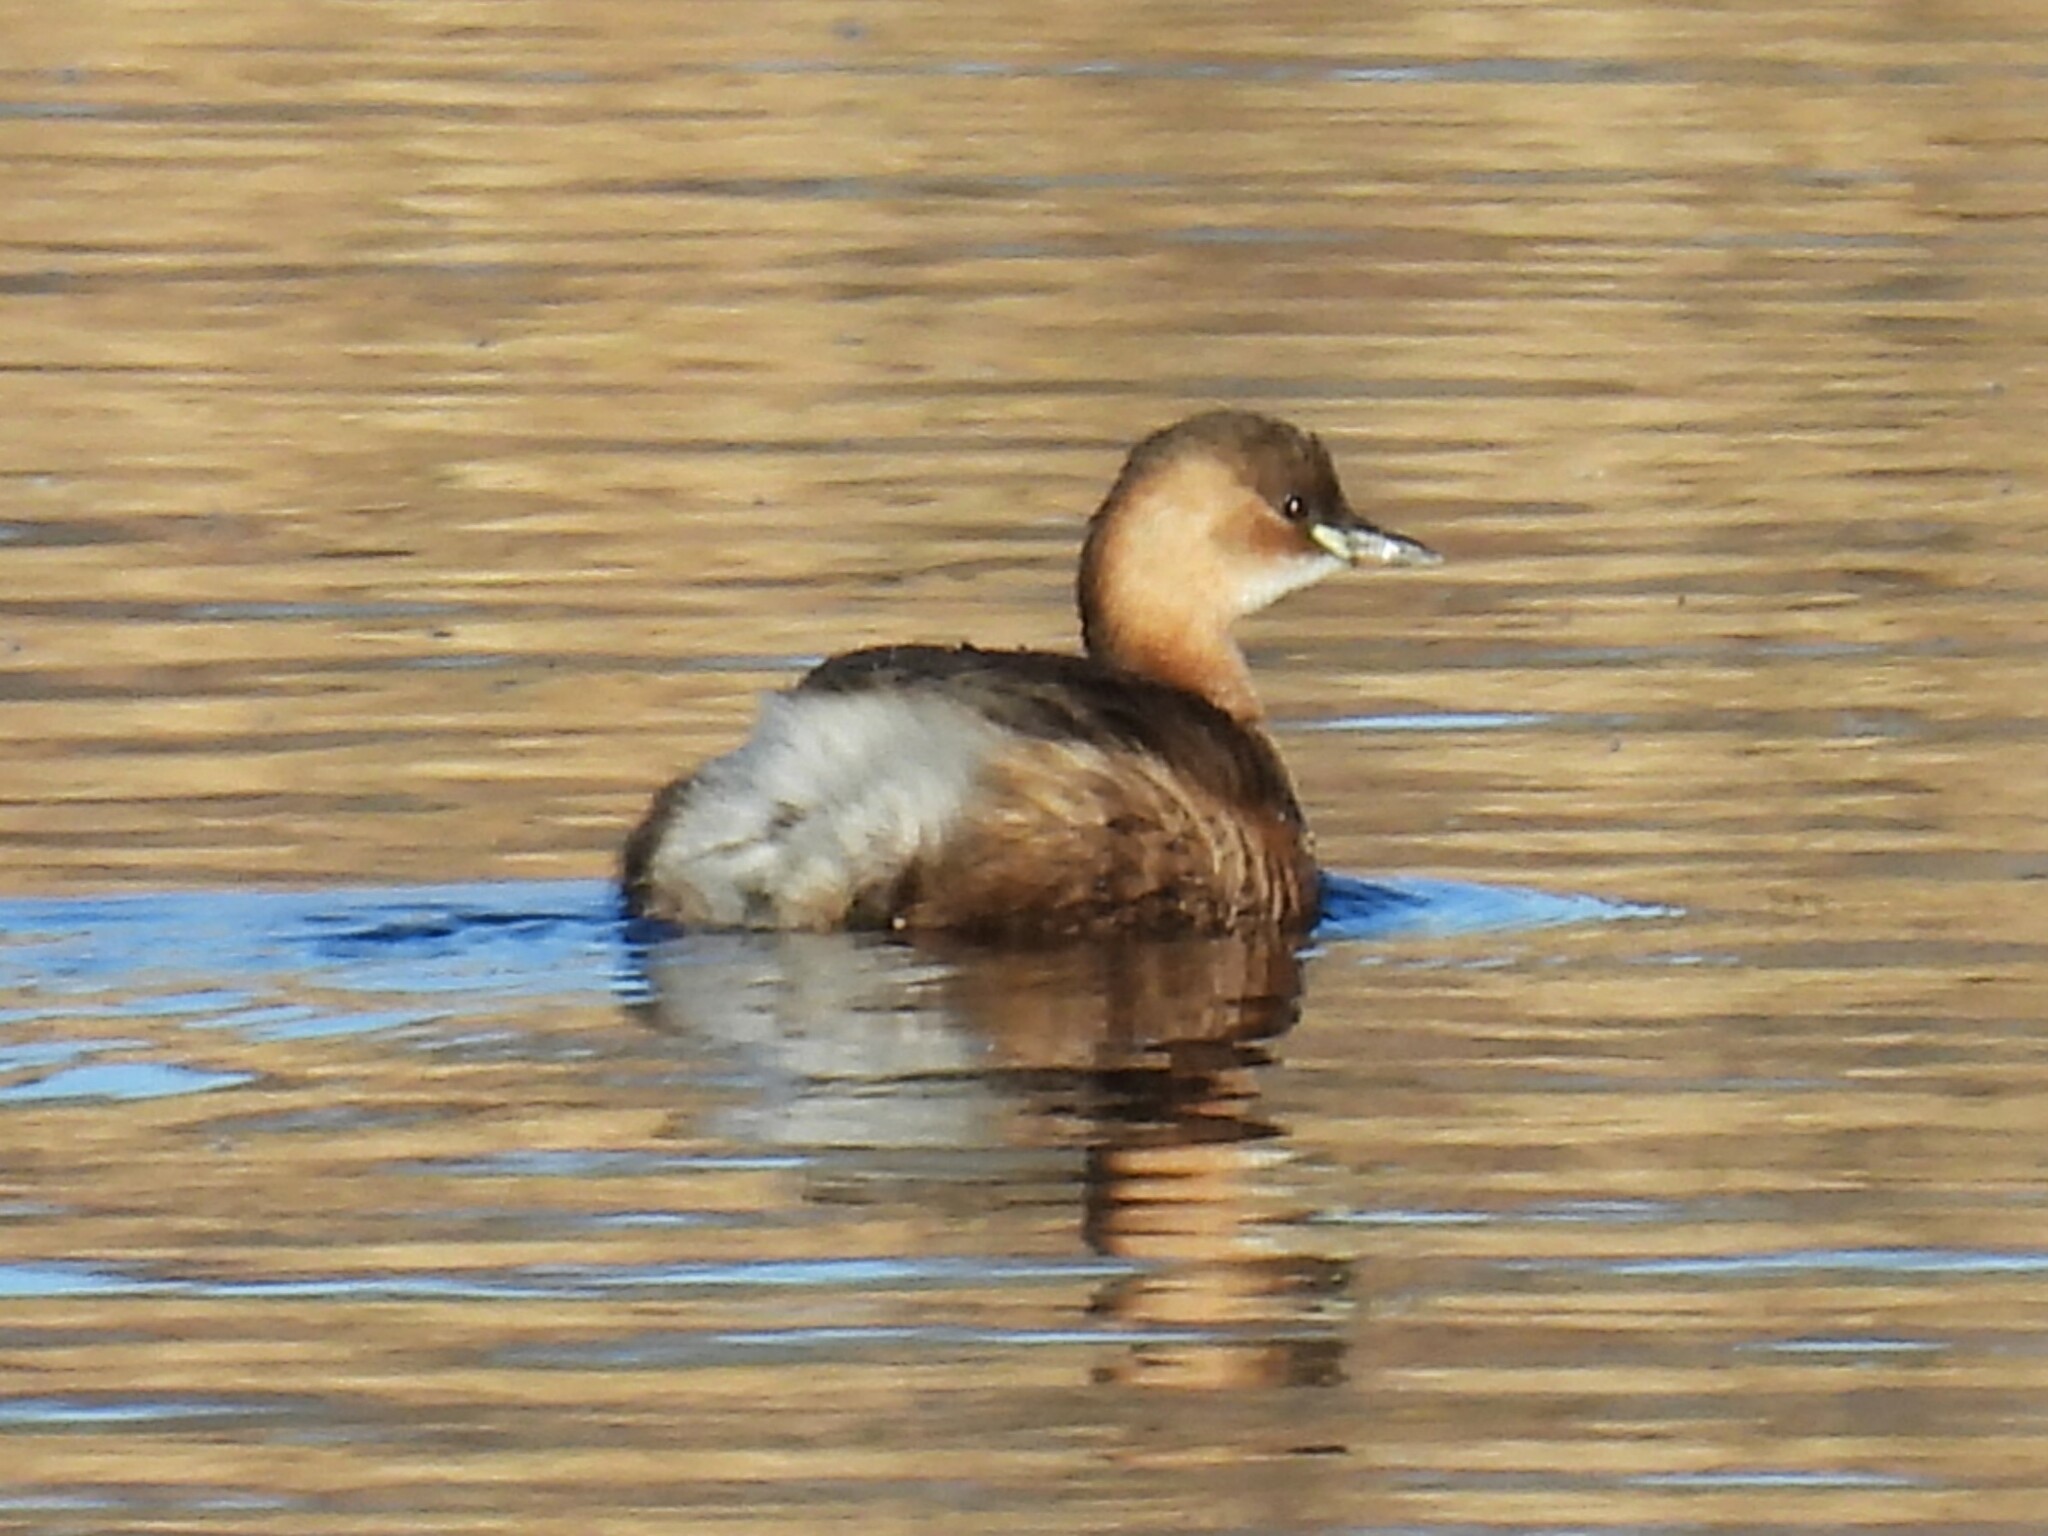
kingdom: Animalia
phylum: Chordata
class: Aves
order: Podicipediformes
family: Podicipedidae
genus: Tachybaptus
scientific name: Tachybaptus ruficollis
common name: Little grebe
